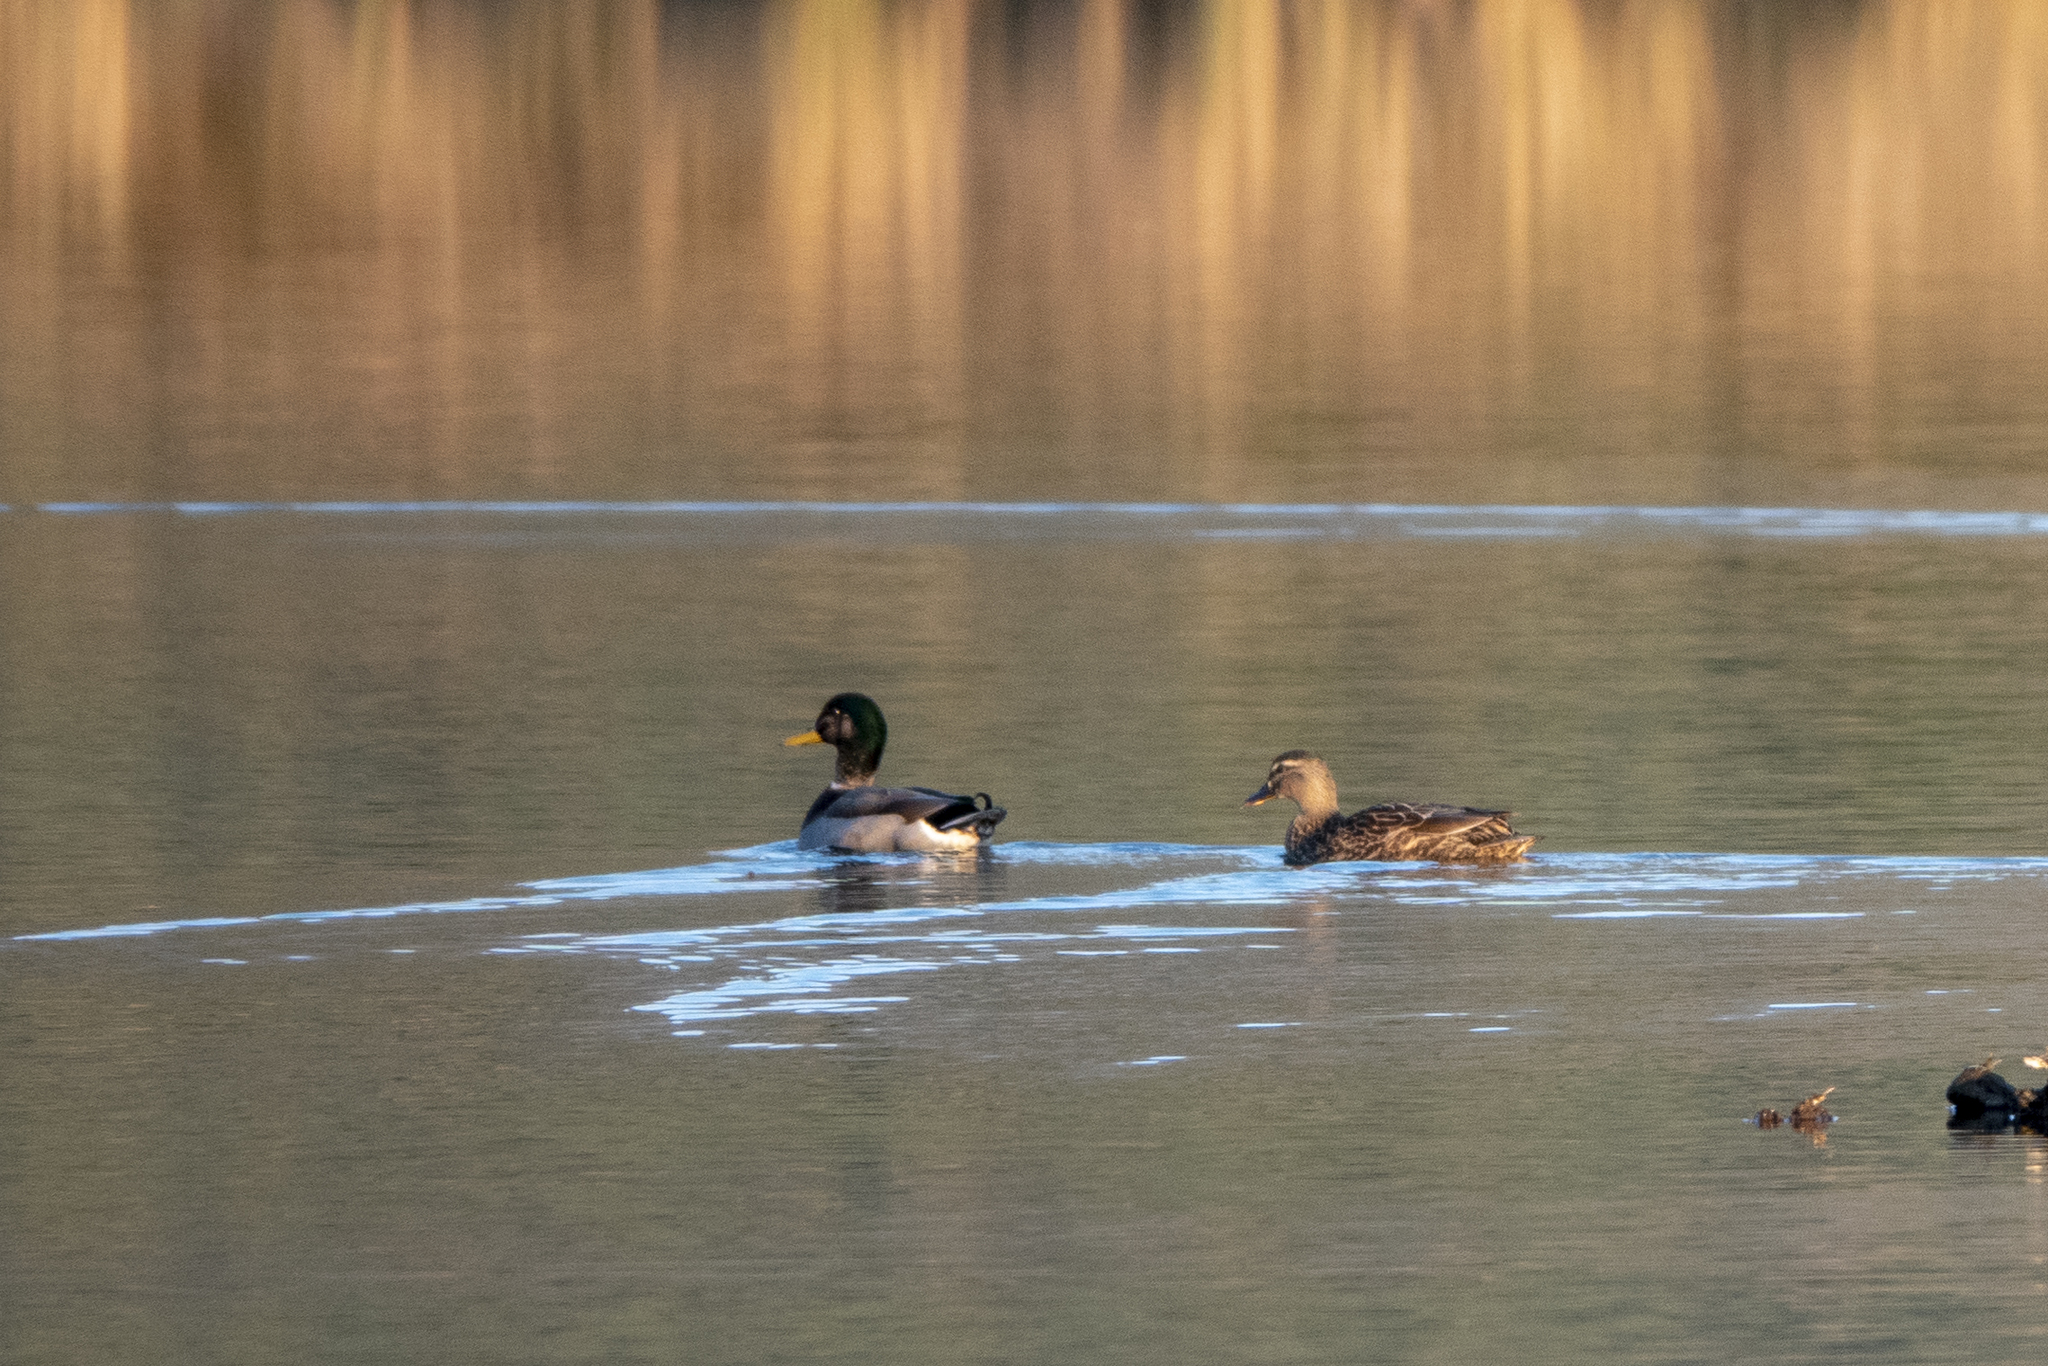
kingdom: Animalia
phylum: Chordata
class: Aves
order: Anseriformes
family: Anatidae
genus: Anas
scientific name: Anas platyrhynchos
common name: Mallard
